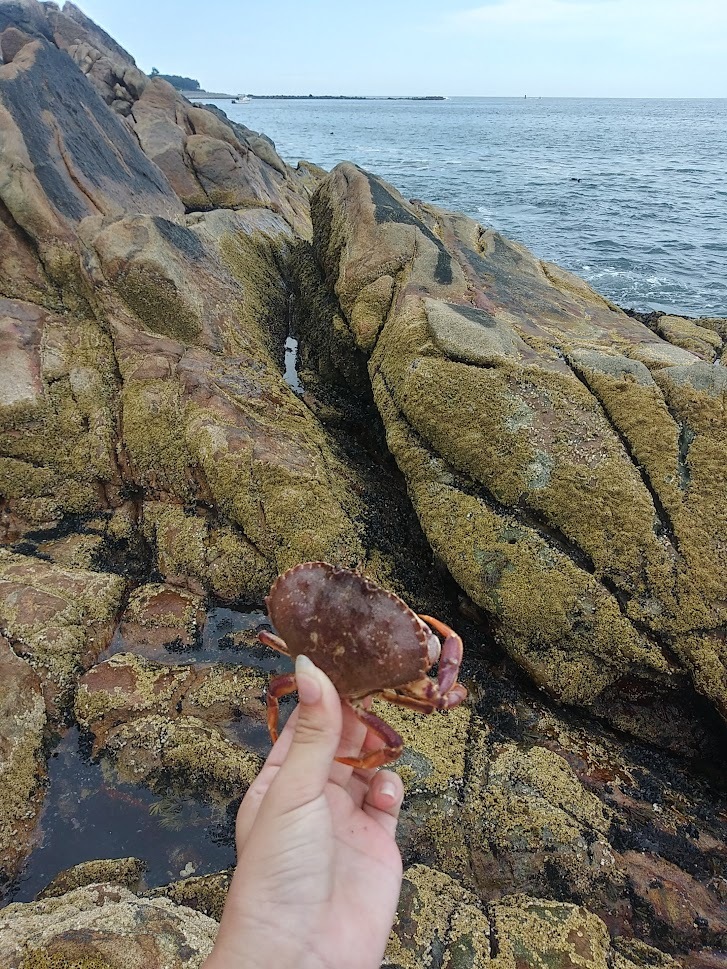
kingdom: Animalia
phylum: Arthropoda
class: Malacostraca
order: Decapoda
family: Cancridae
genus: Cancer
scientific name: Cancer irroratus
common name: Atlantic rock crab
